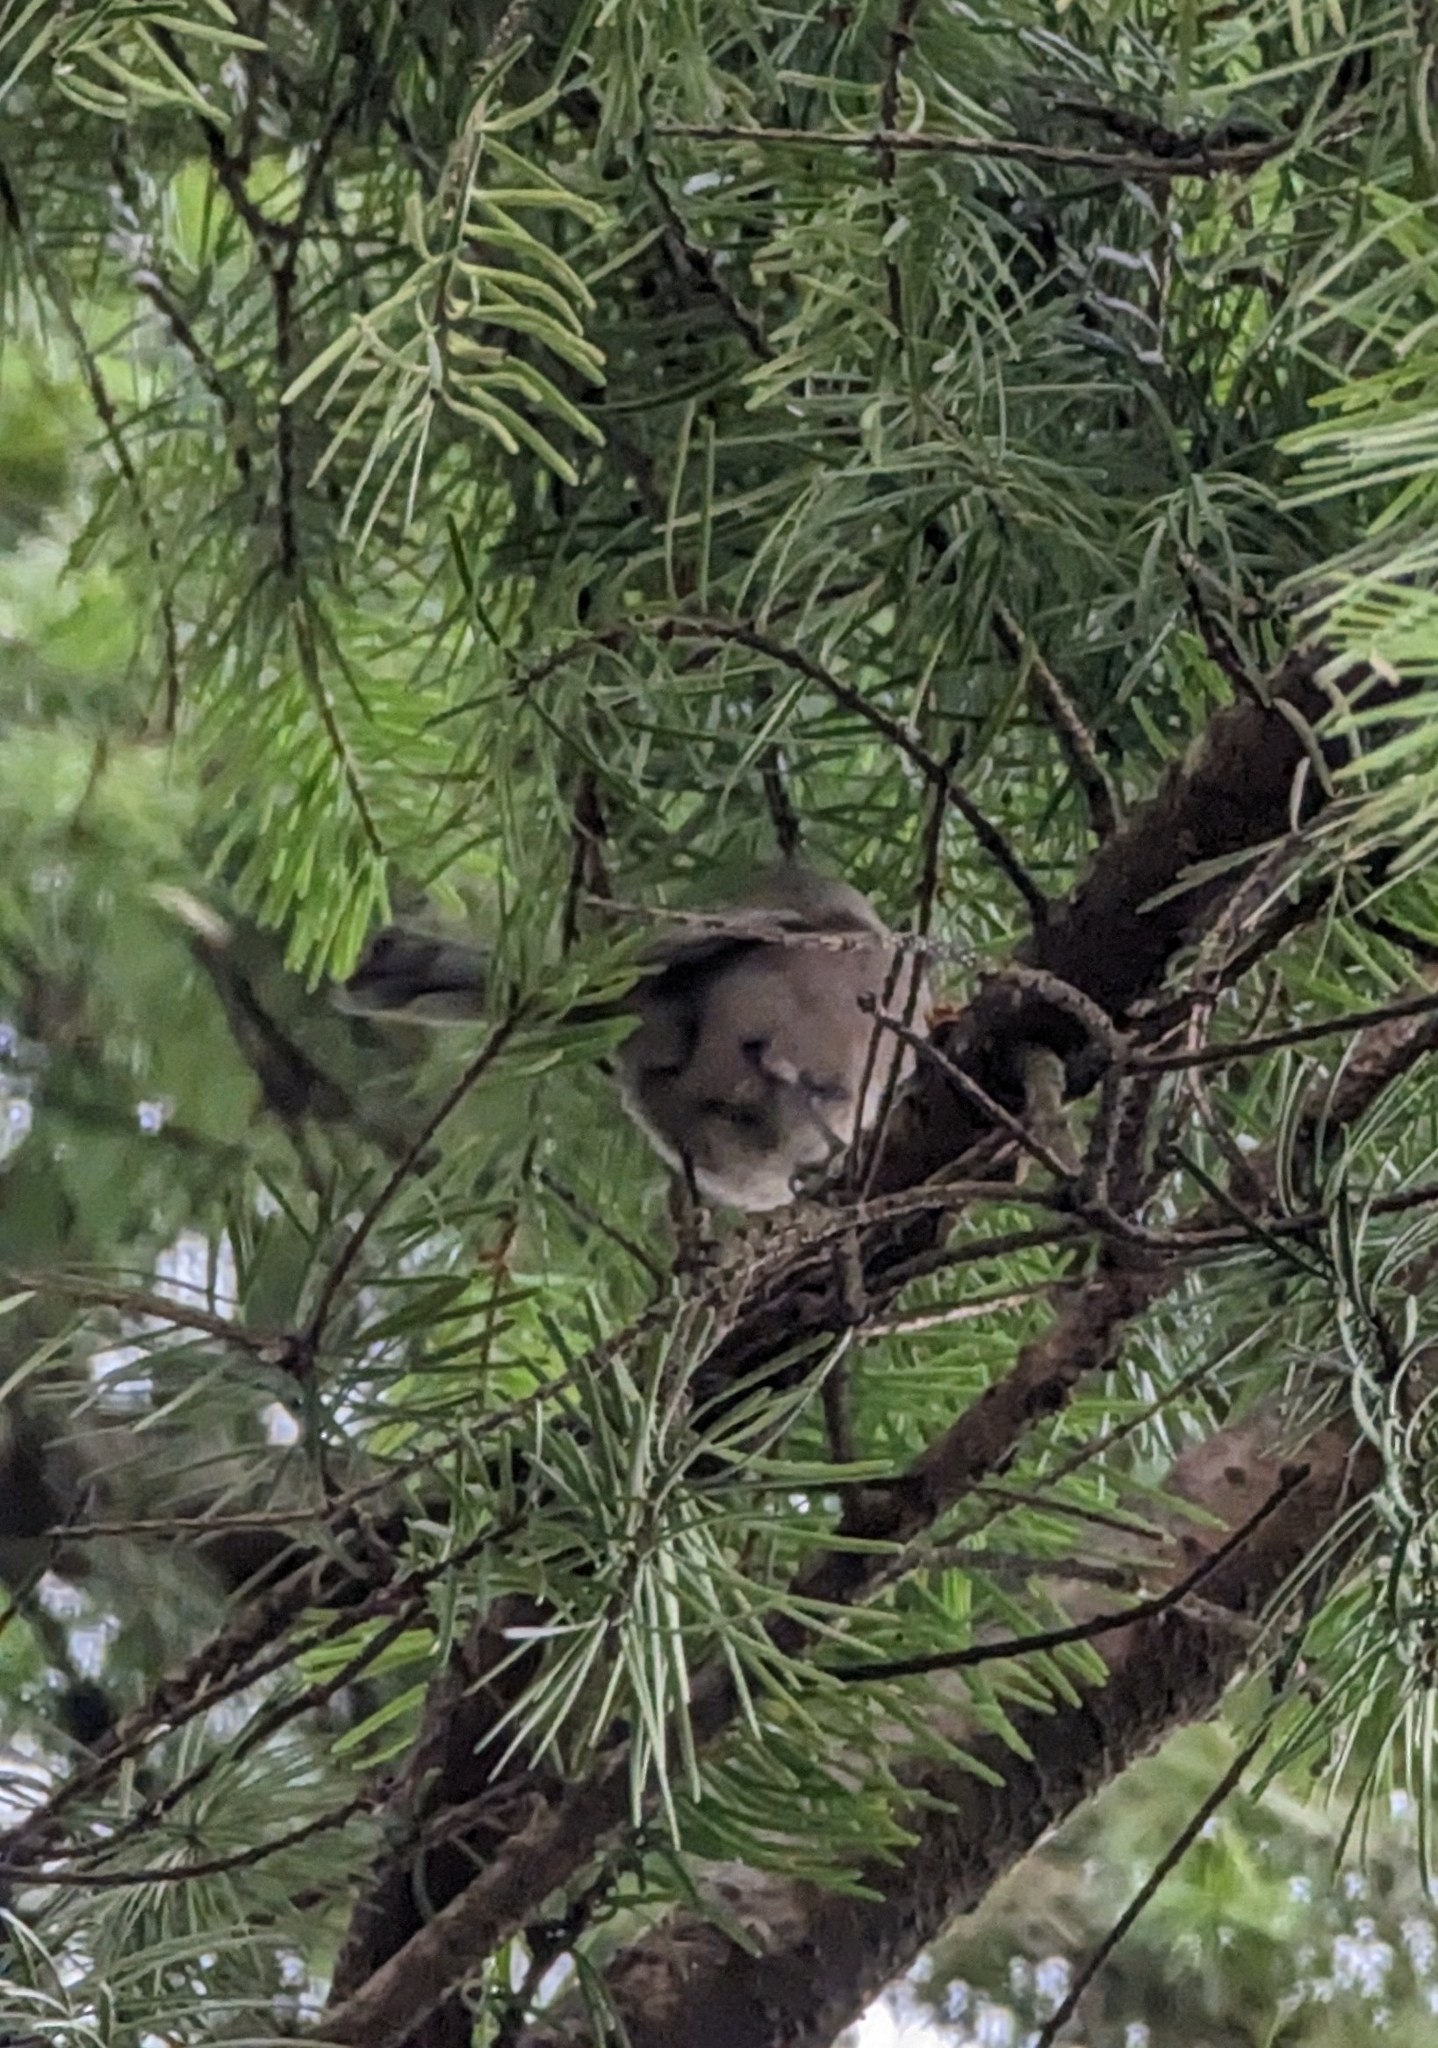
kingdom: Animalia
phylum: Chordata
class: Aves
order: Passeriformes
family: Aegithalidae
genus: Psaltriparus
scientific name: Psaltriparus minimus
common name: American bushtit
